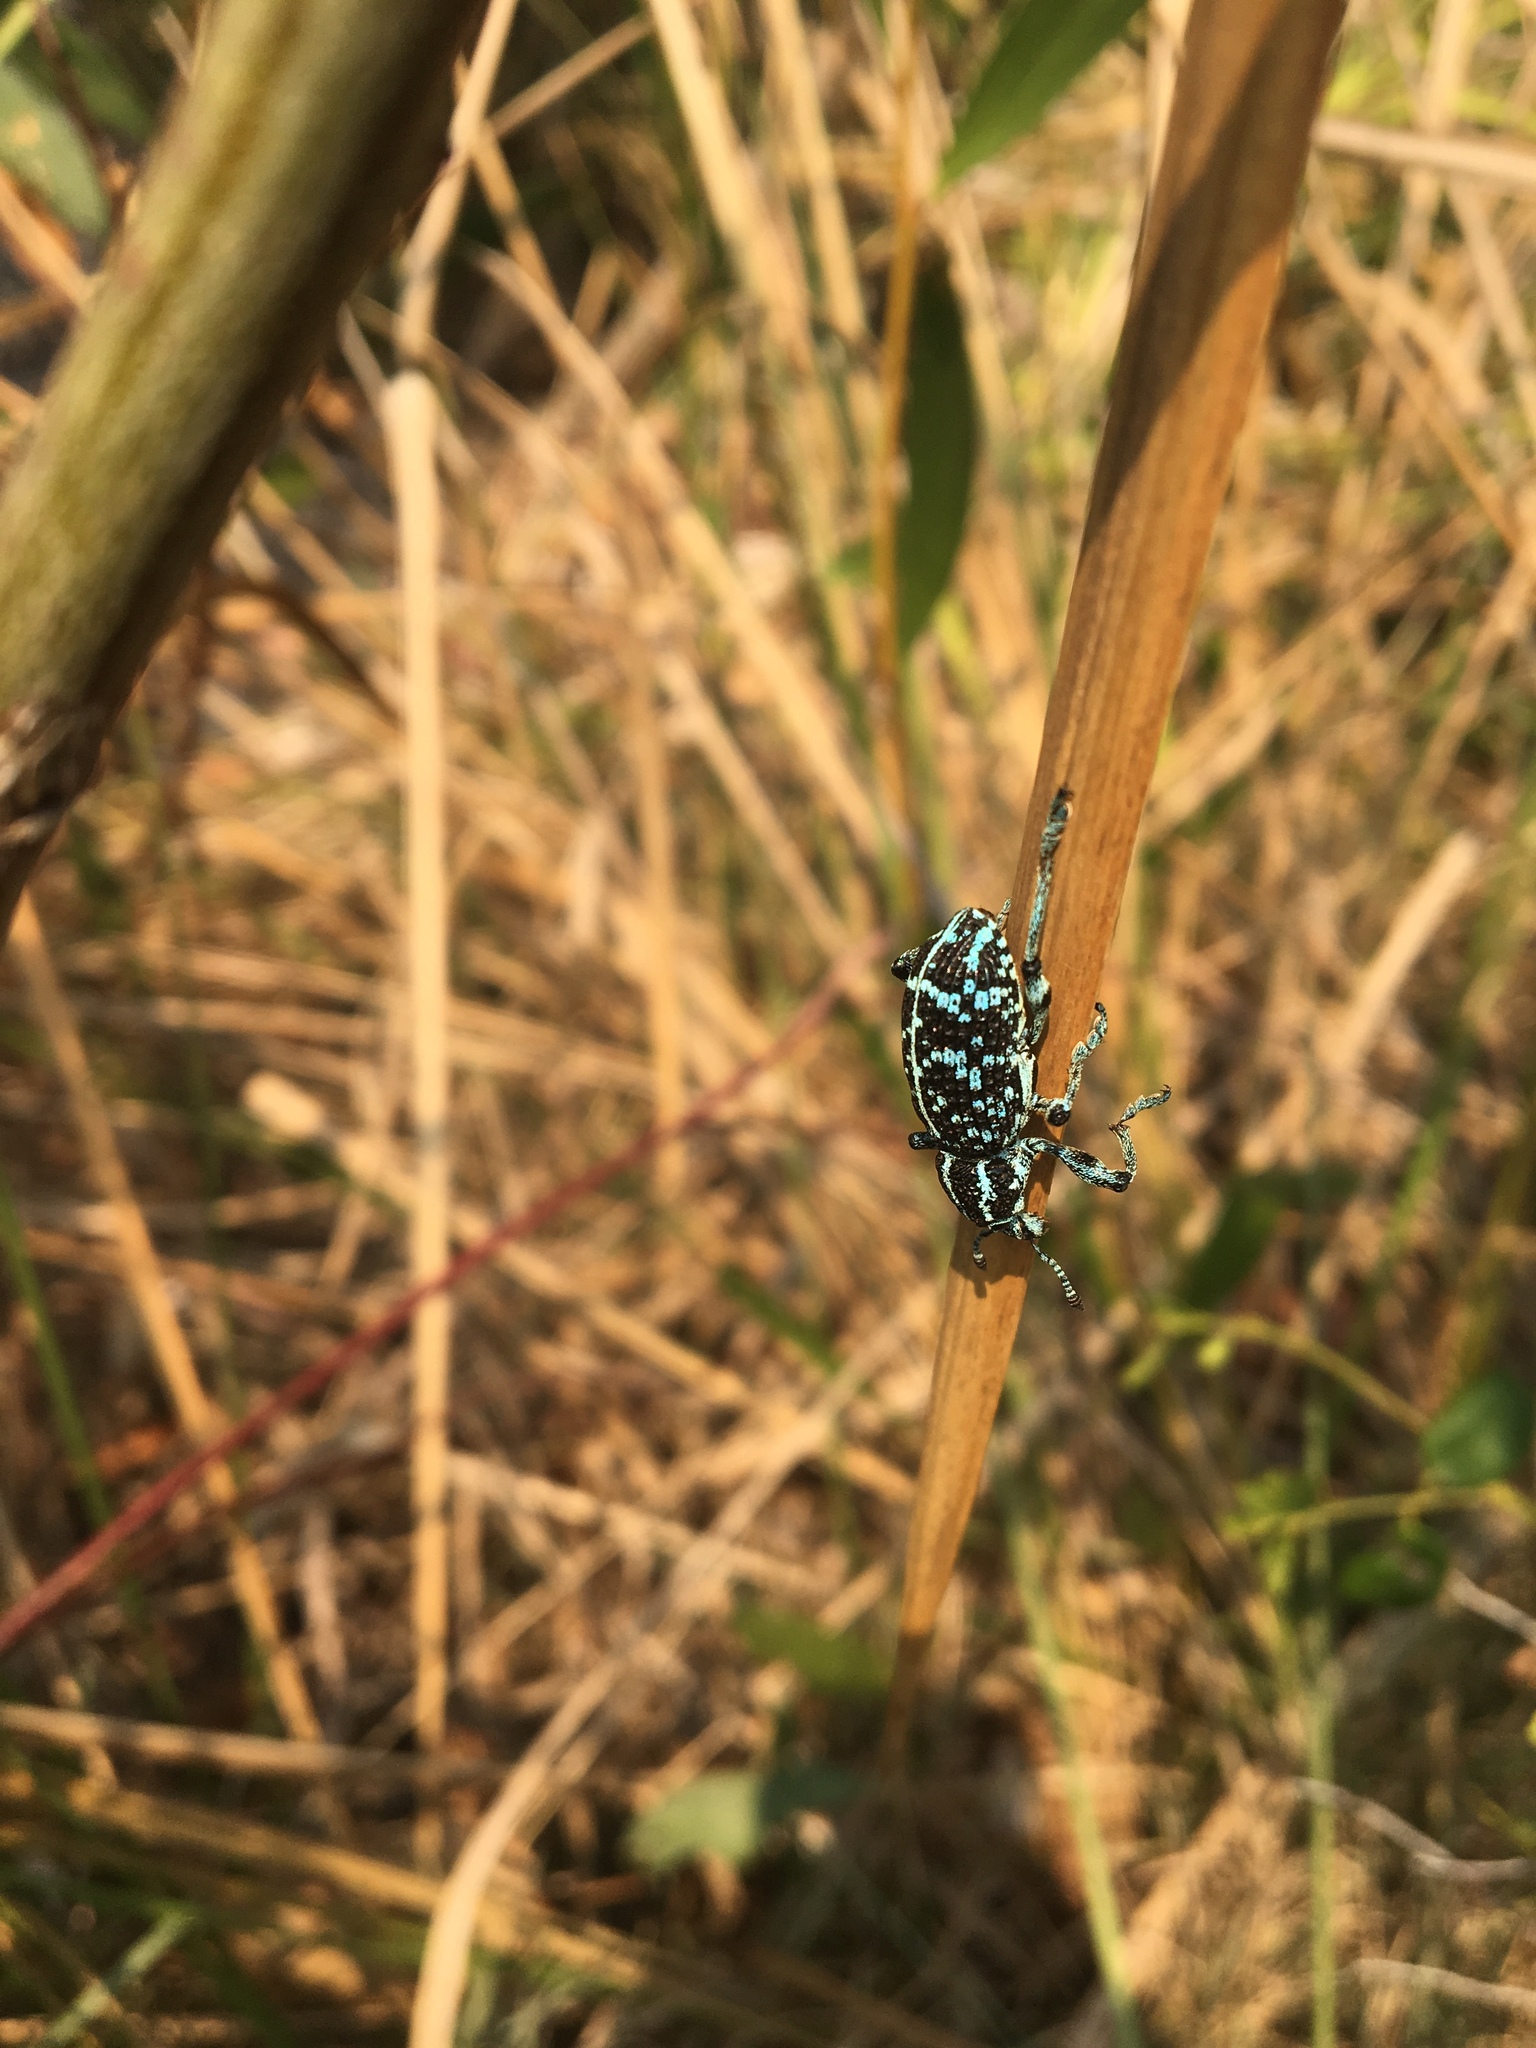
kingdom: Animalia
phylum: Arthropoda
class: Insecta
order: Coleoptera
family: Curculionidae
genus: Chrysolopus
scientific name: Chrysolopus spectabilis
